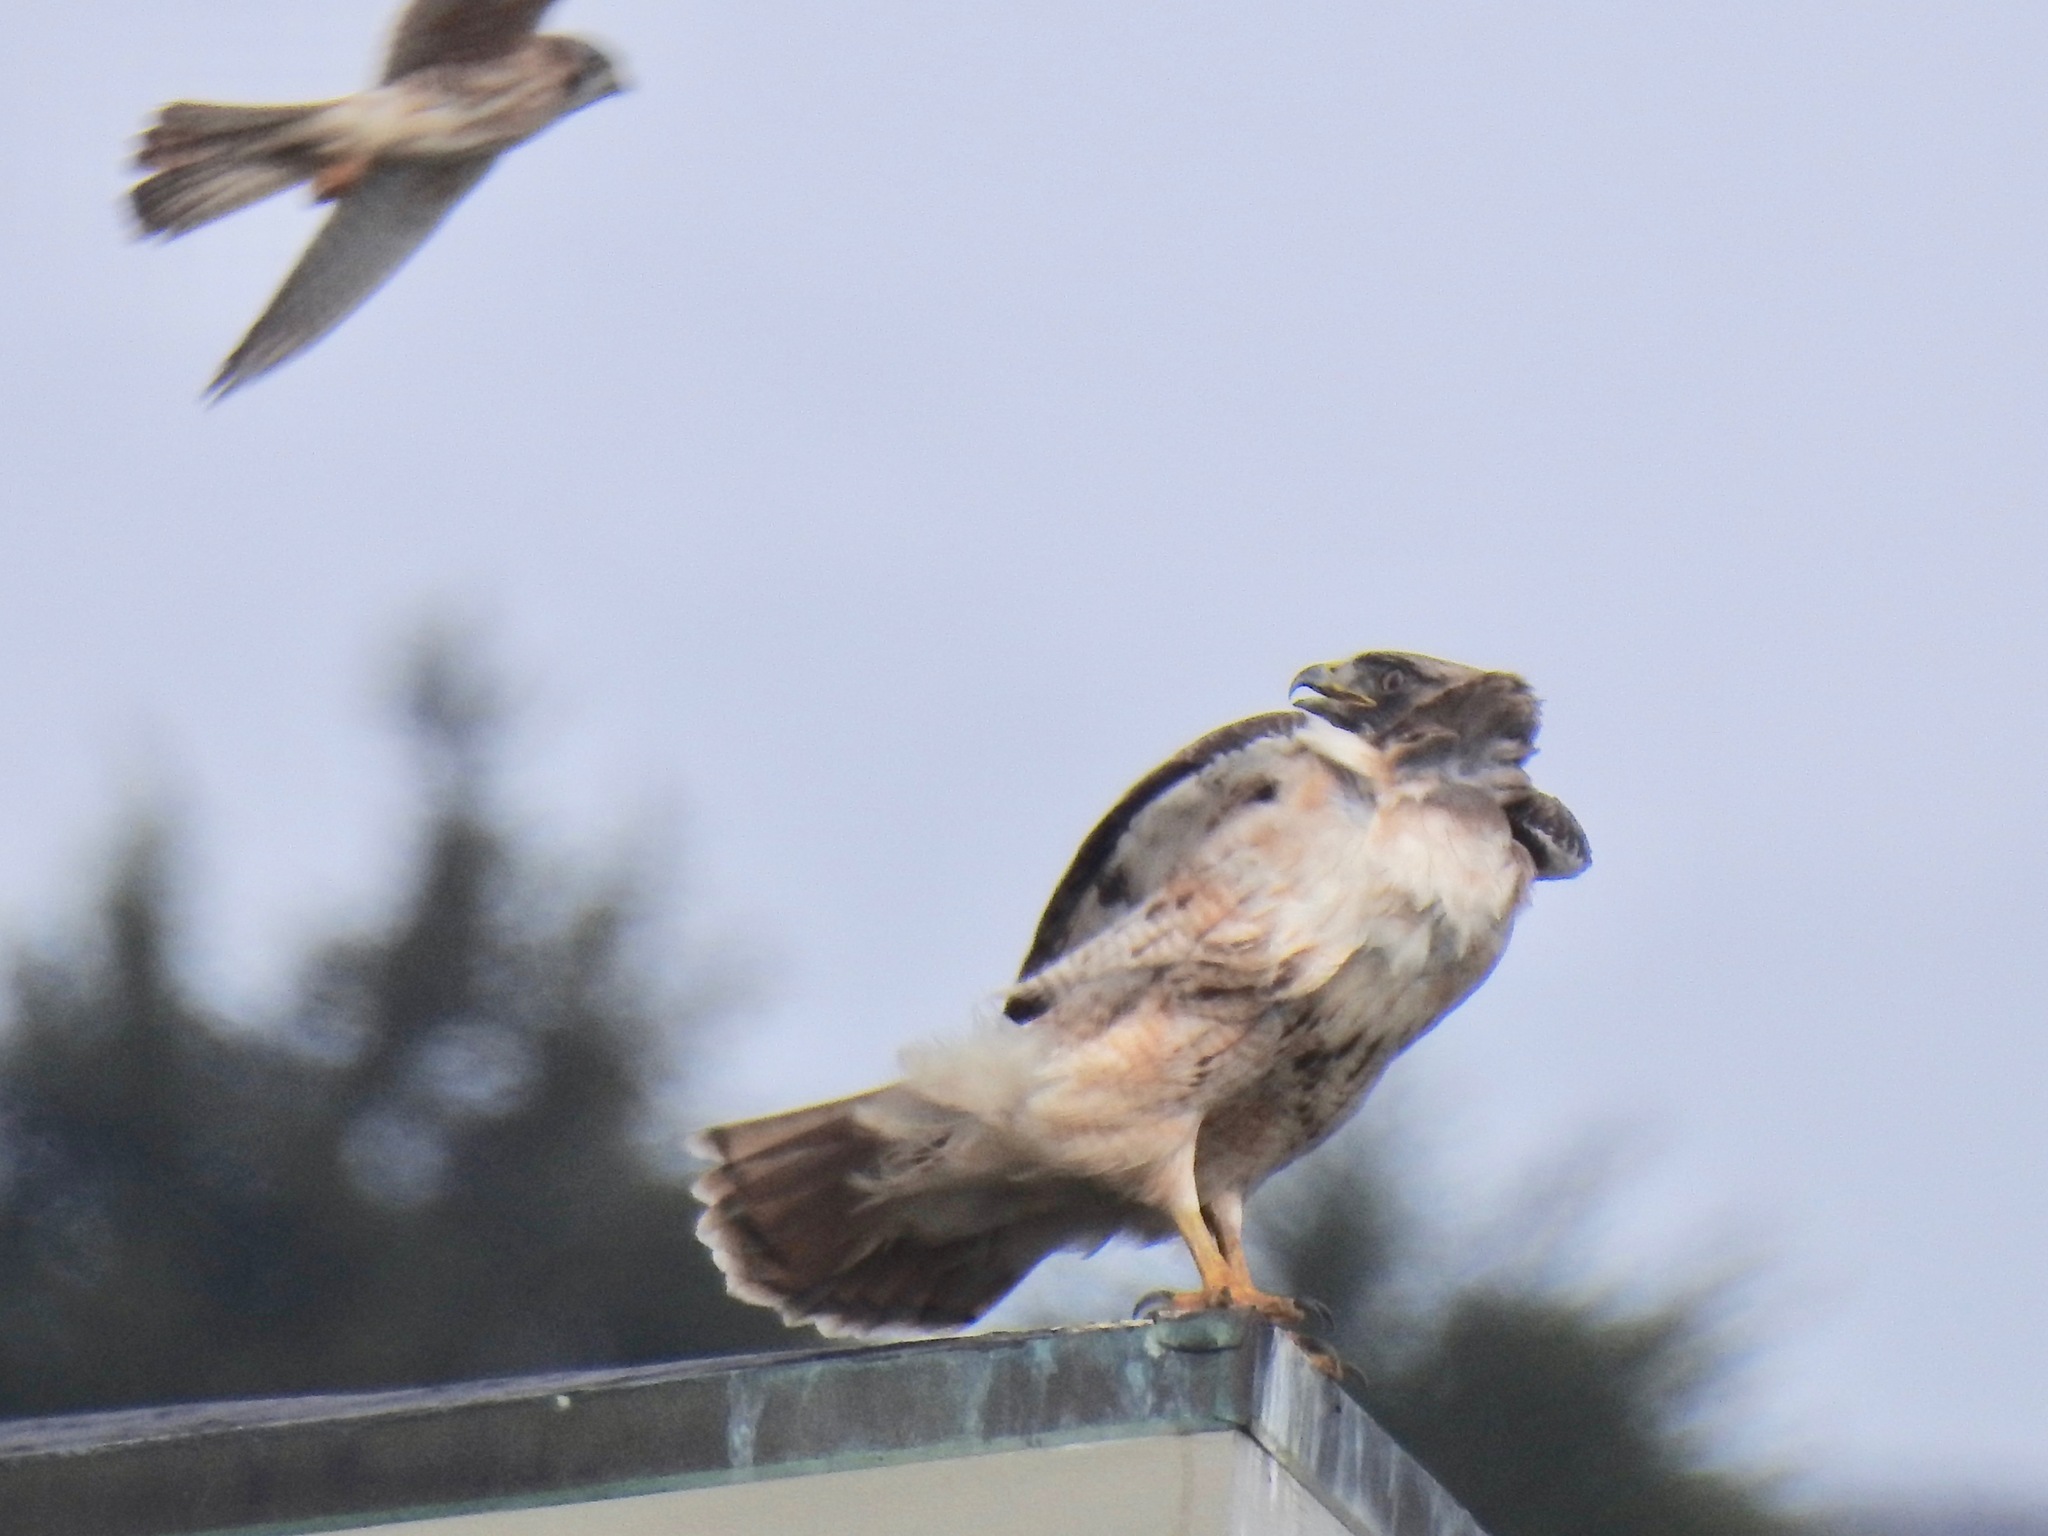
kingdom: Animalia
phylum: Chordata
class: Aves
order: Accipitriformes
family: Accipitridae
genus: Buteo
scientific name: Buteo jamaicensis
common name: Red-tailed hawk
